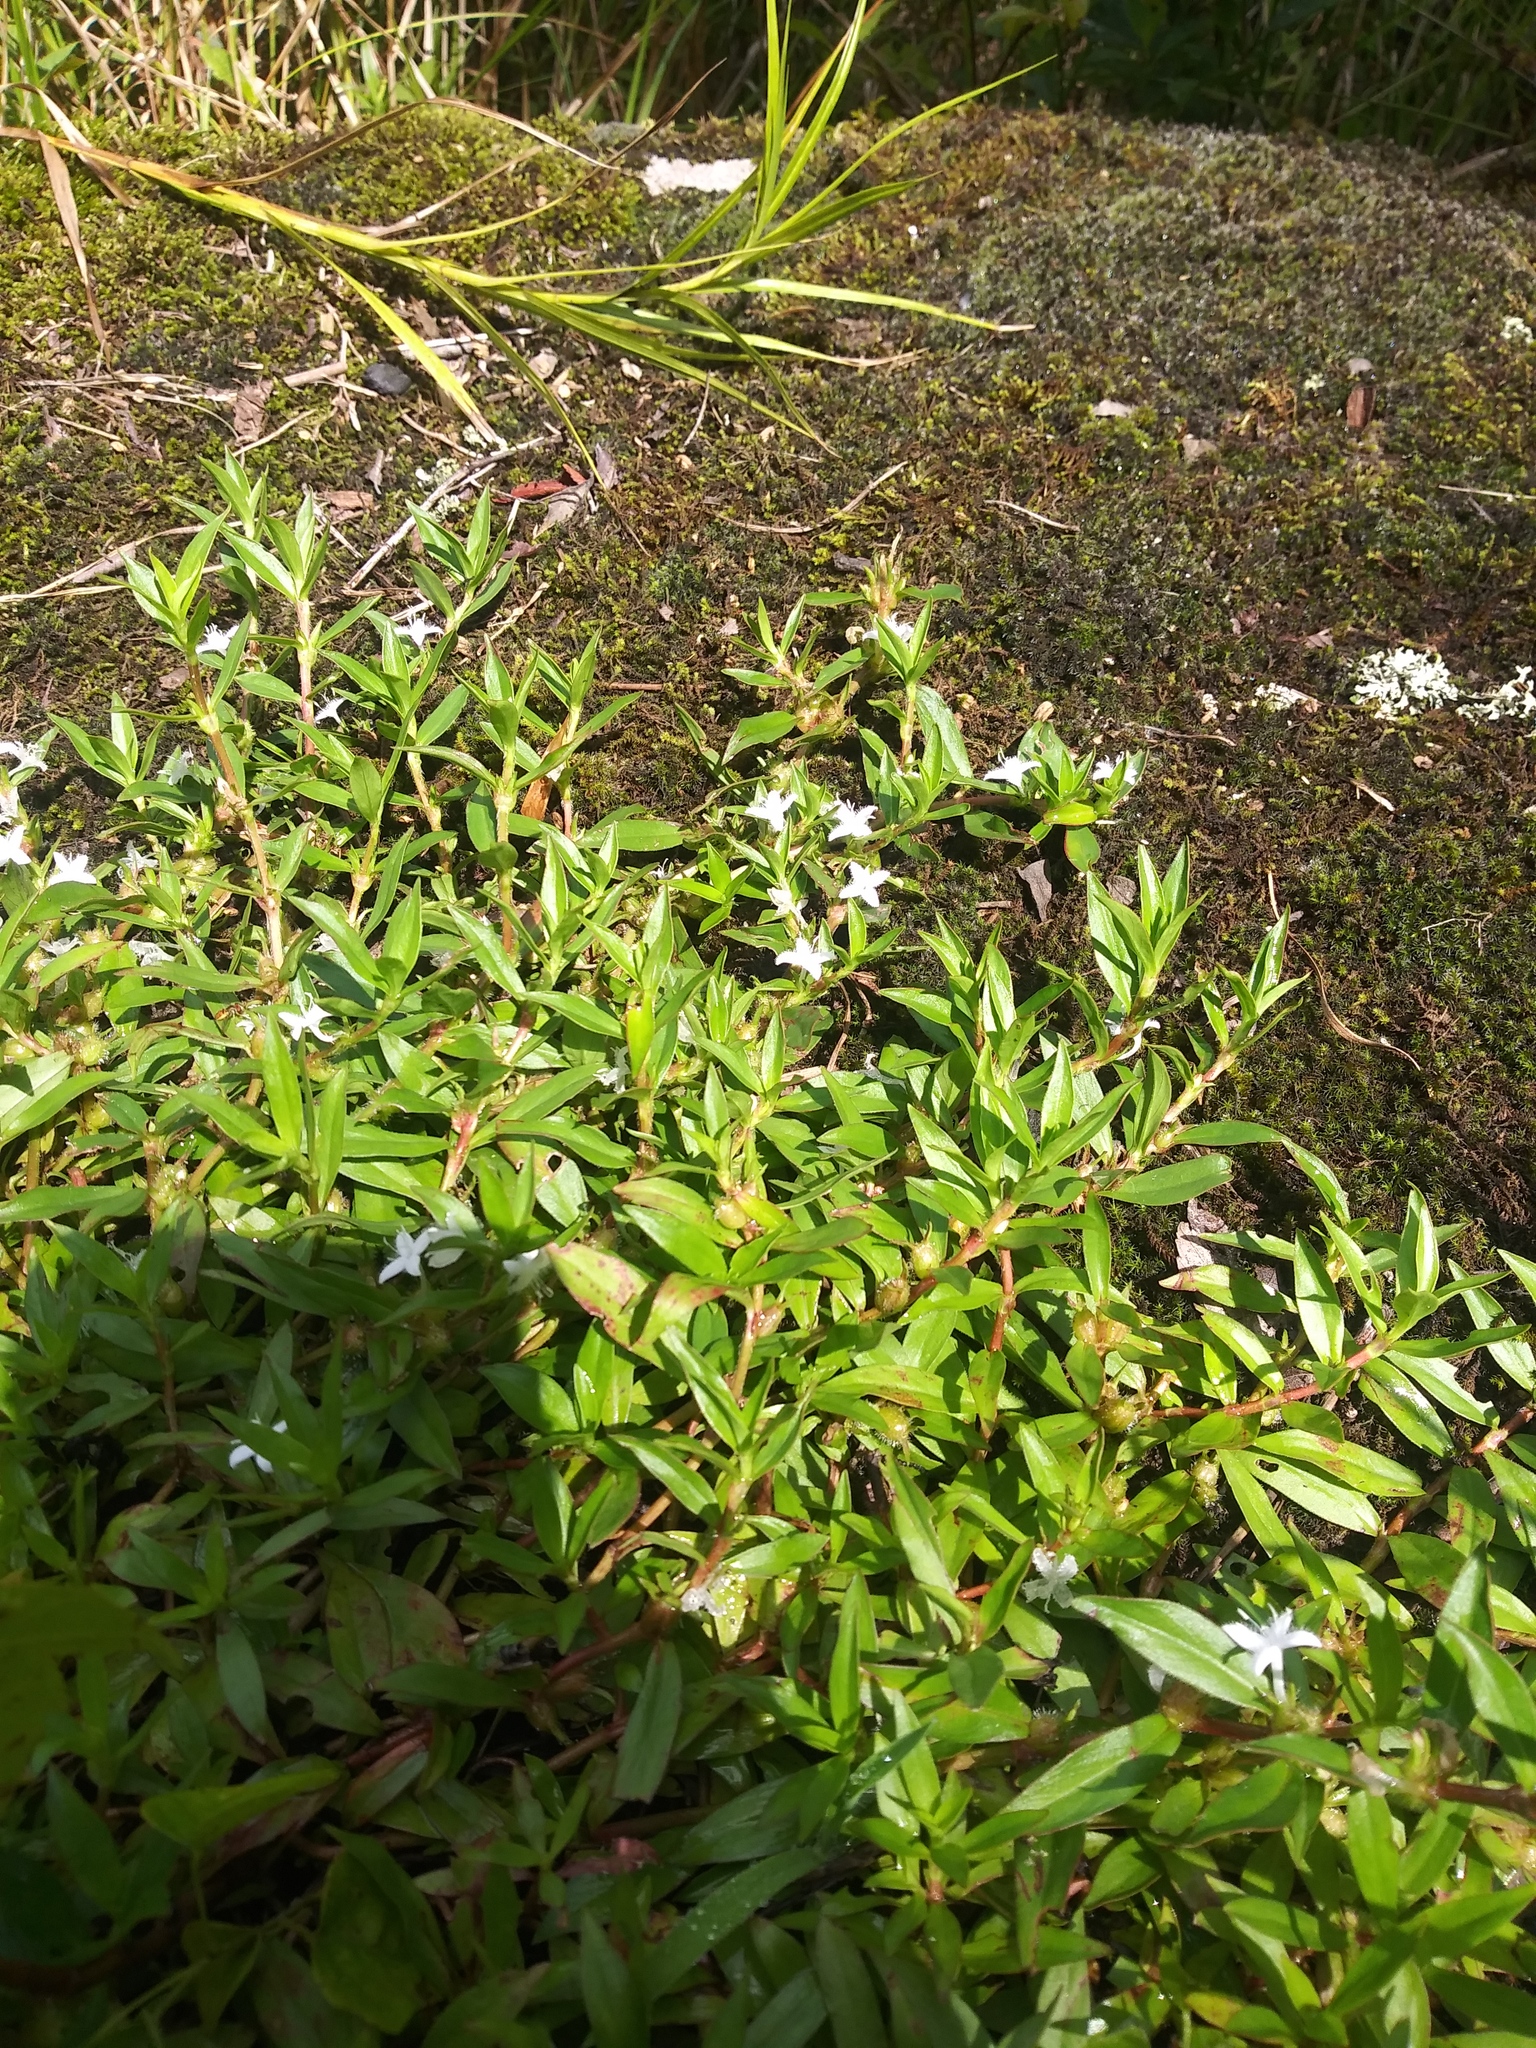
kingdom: Plantae
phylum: Tracheophyta
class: Magnoliopsida
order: Gentianales
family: Rubiaceae
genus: Diodia
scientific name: Diodia virginiana
